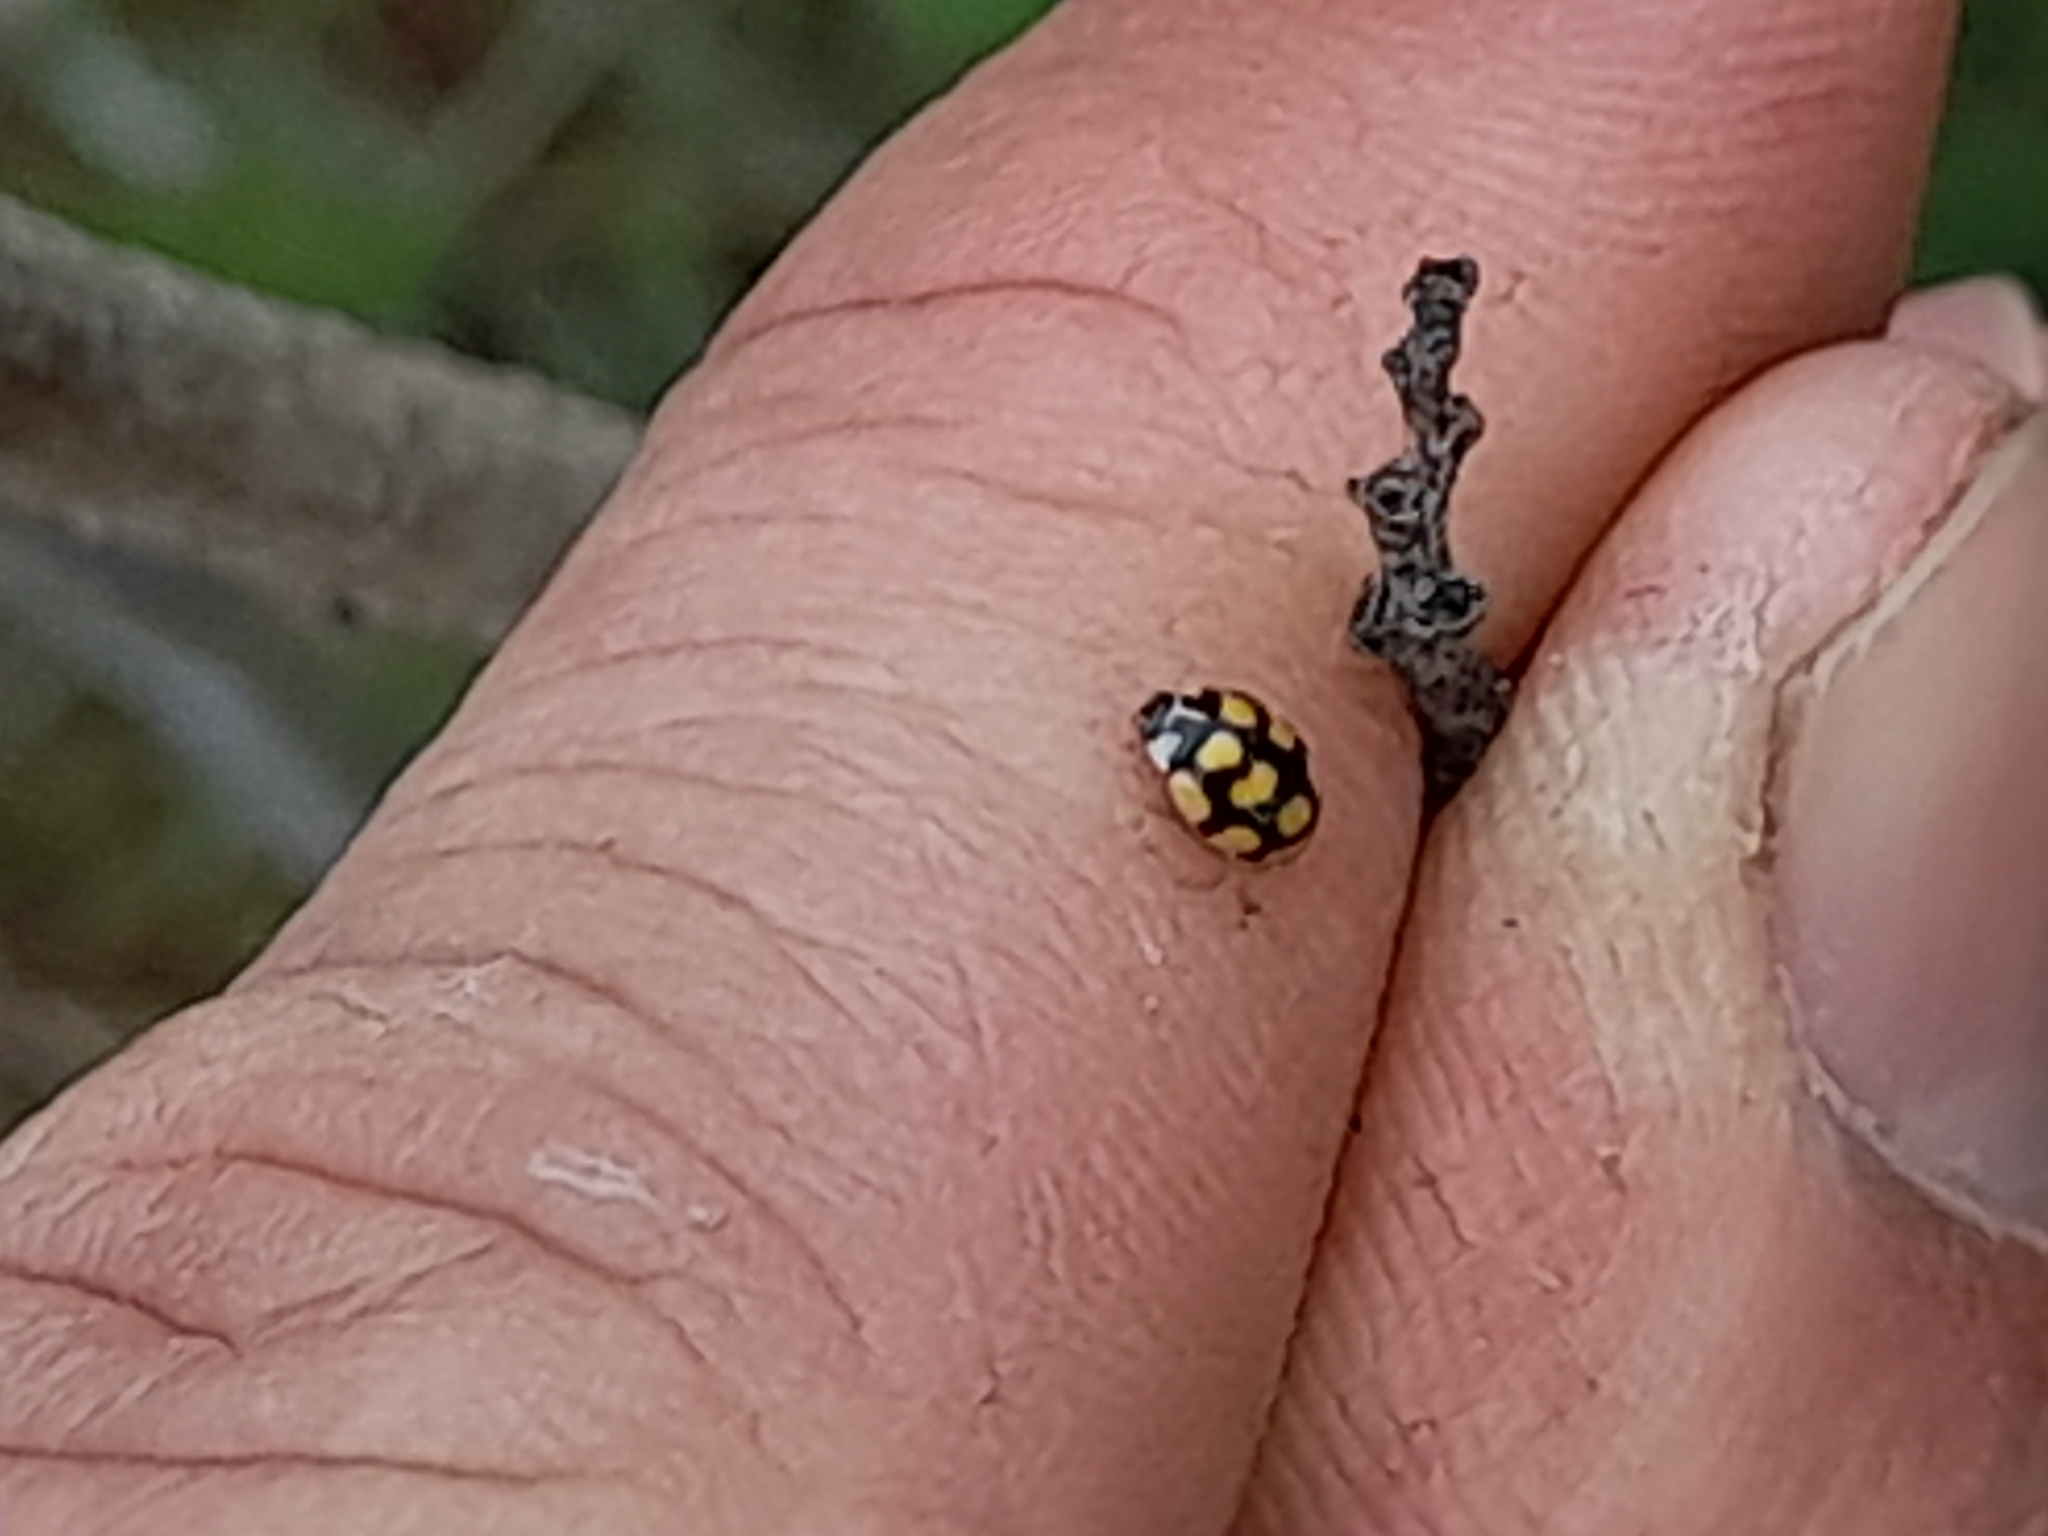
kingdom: Animalia
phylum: Arthropoda
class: Insecta
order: Coleoptera
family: Coccinellidae
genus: Oenopia
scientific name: Oenopia lyncea
